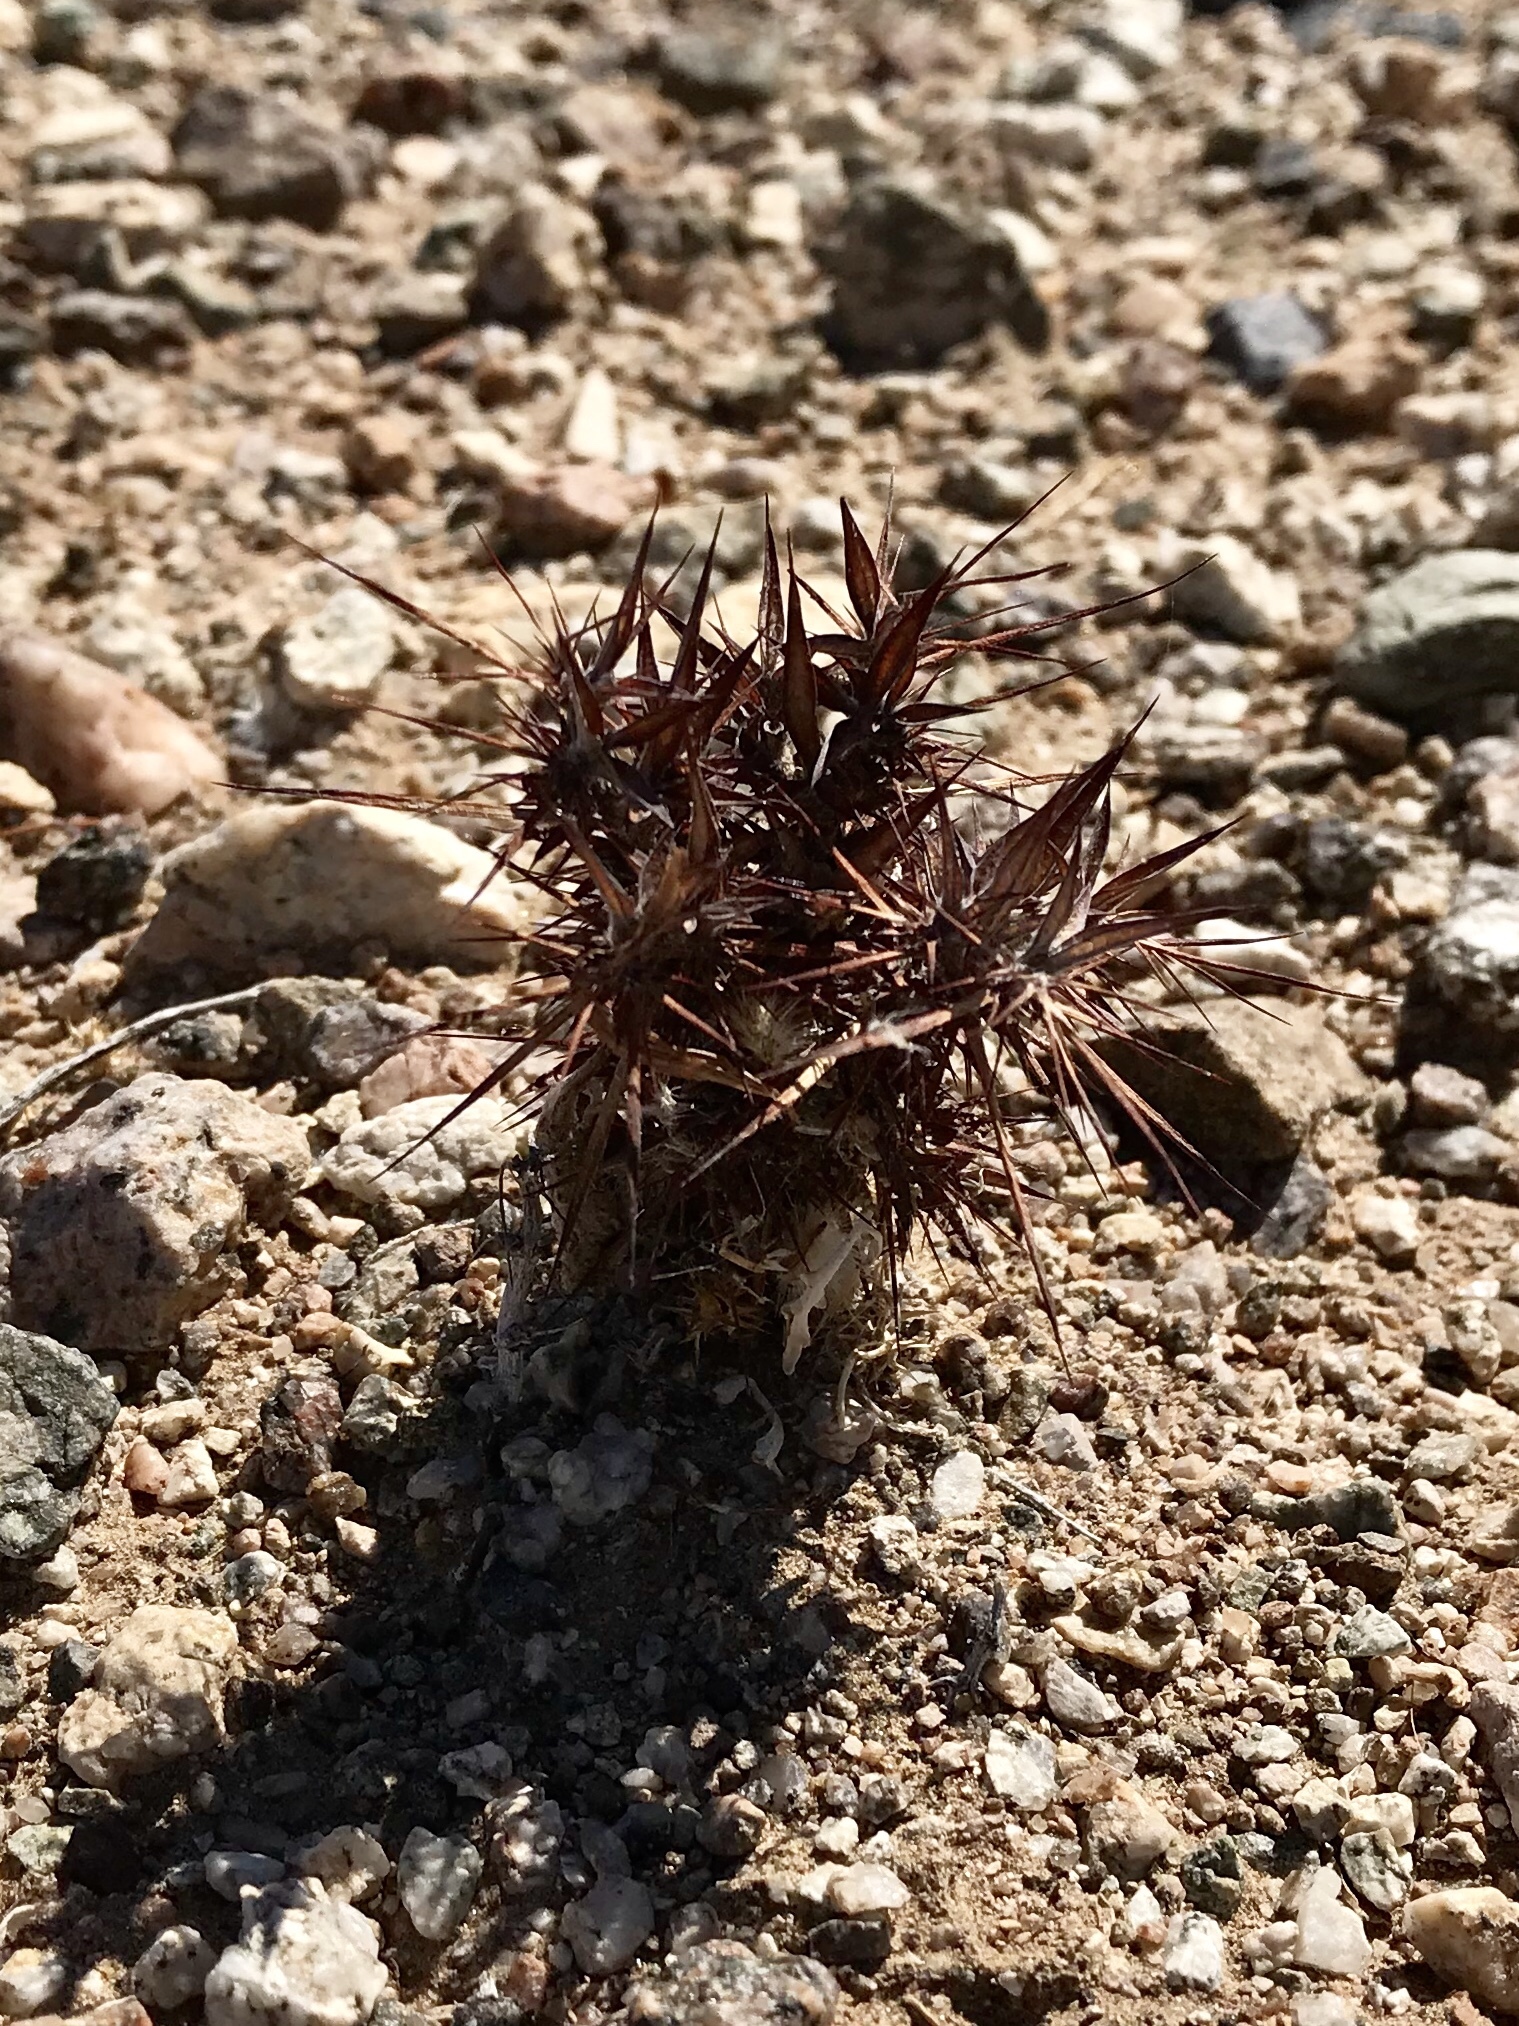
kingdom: Plantae
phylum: Tracheophyta
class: Magnoliopsida
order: Caryophyllales
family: Polygonaceae
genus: Chorizanthe
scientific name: Chorizanthe rigida
